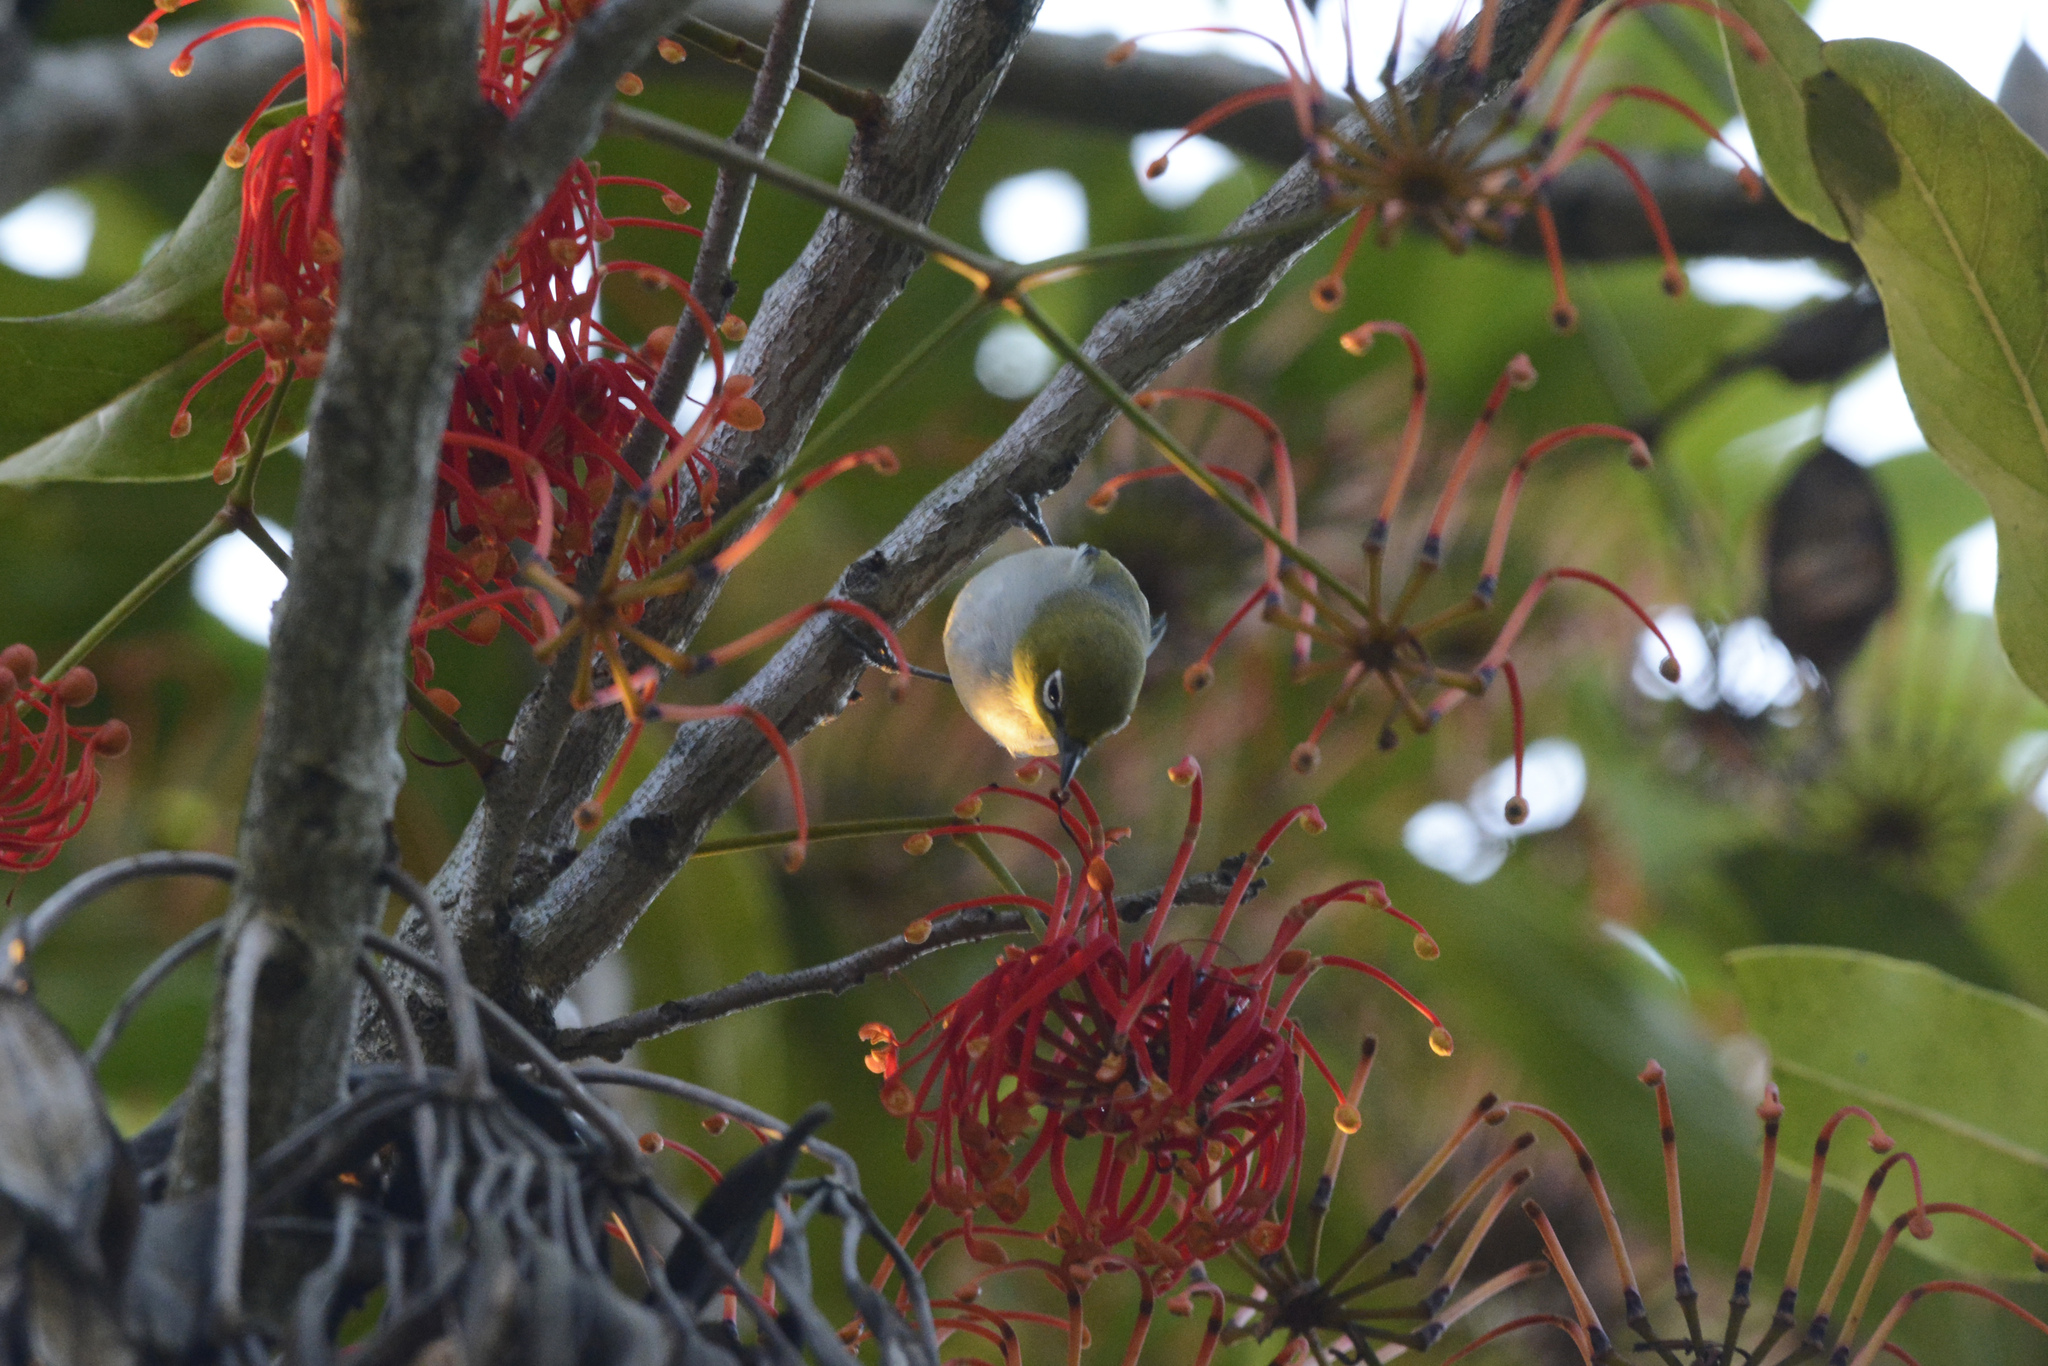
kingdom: Animalia
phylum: Chordata
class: Aves
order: Passeriformes
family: Zosteropidae
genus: Zosterops
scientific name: Zosterops lateralis
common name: Silvereye
